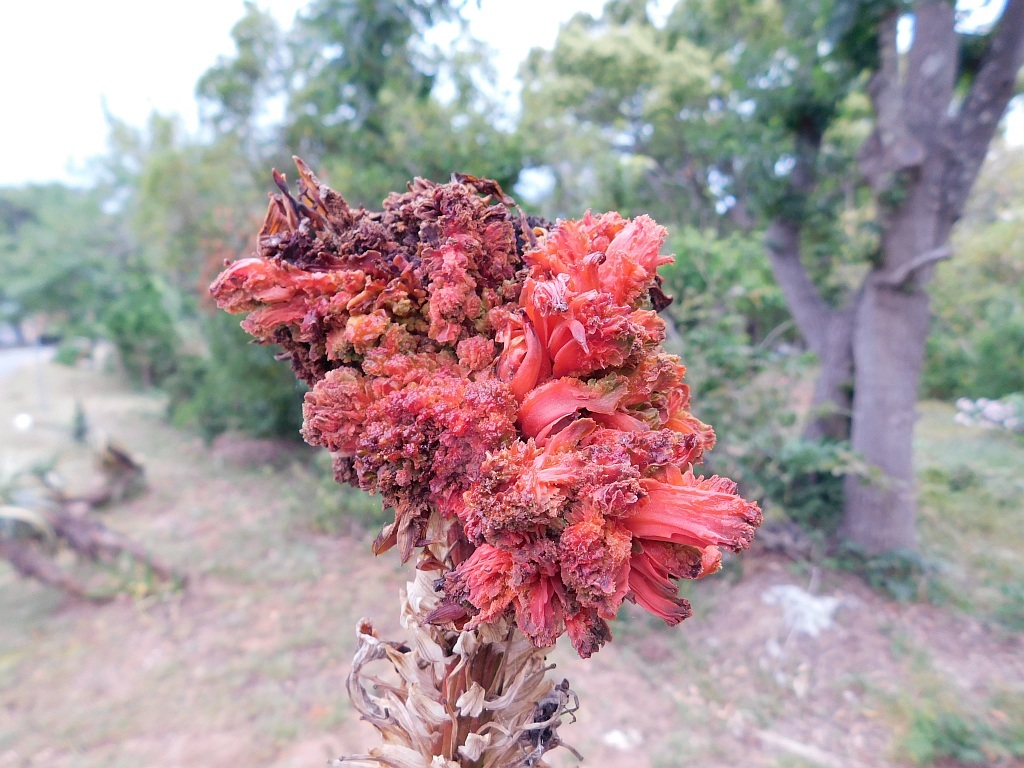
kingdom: Animalia
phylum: Arthropoda
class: Arachnida
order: Trombidiformes
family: Eriophyidae
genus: Aceria
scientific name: Aceria aloinis
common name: Mite
